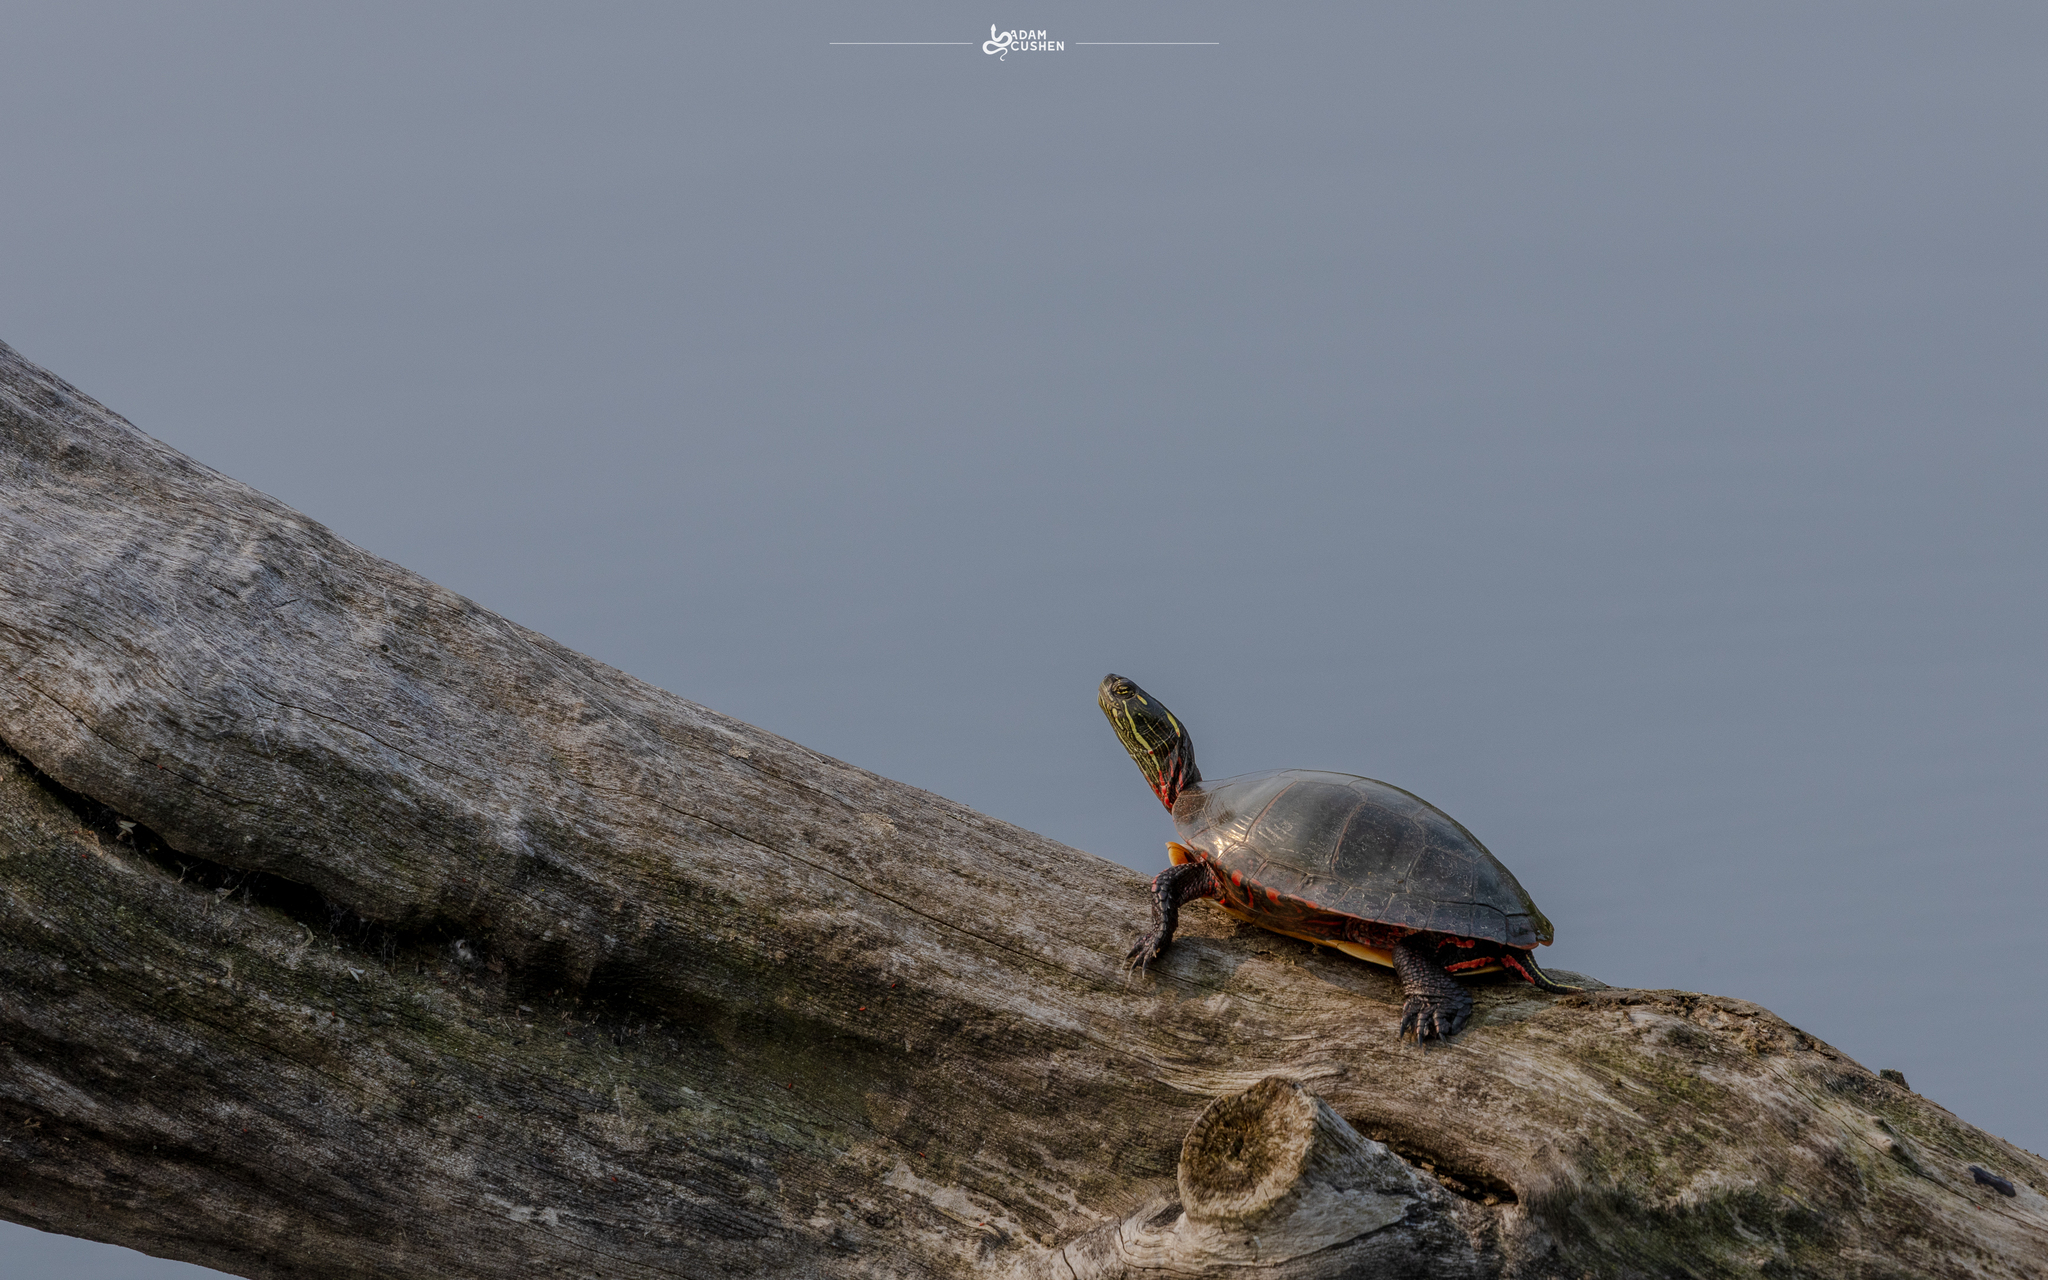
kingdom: Animalia
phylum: Chordata
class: Testudines
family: Emydidae
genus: Chrysemys
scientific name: Chrysemys picta
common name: Painted turtle
